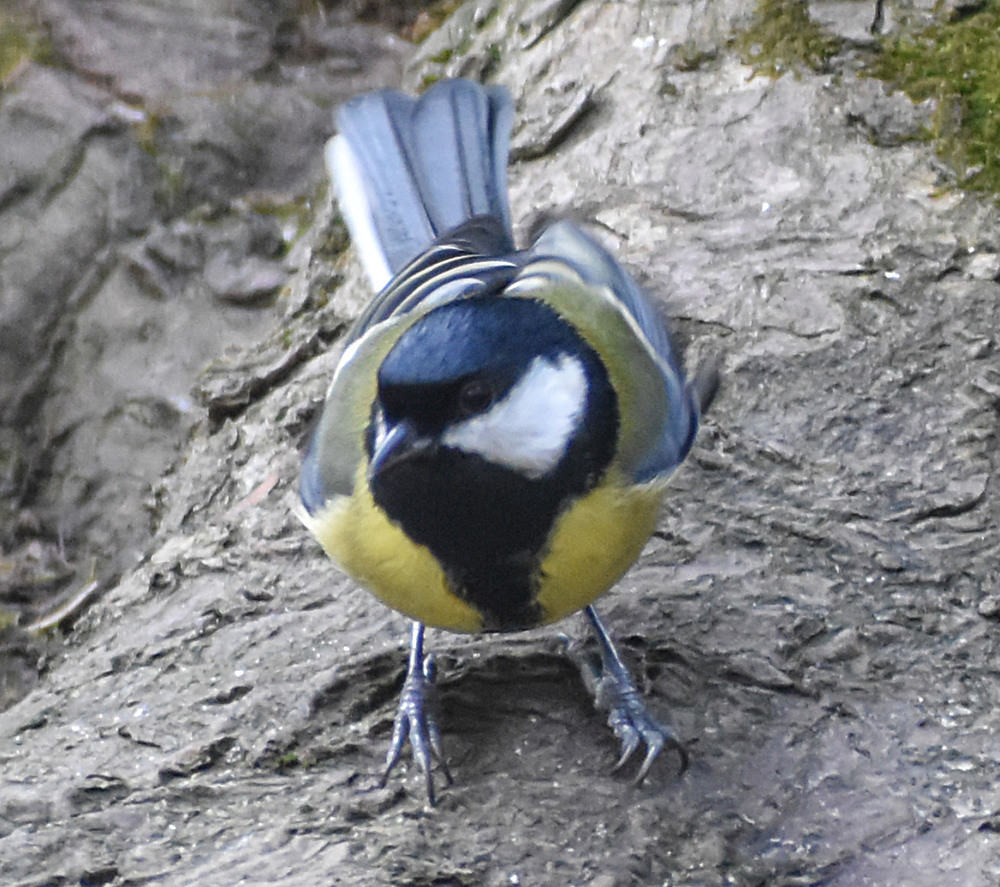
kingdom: Animalia
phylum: Chordata
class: Aves
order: Passeriformes
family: Paridae
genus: Parus
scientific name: Parus major
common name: Great tit
